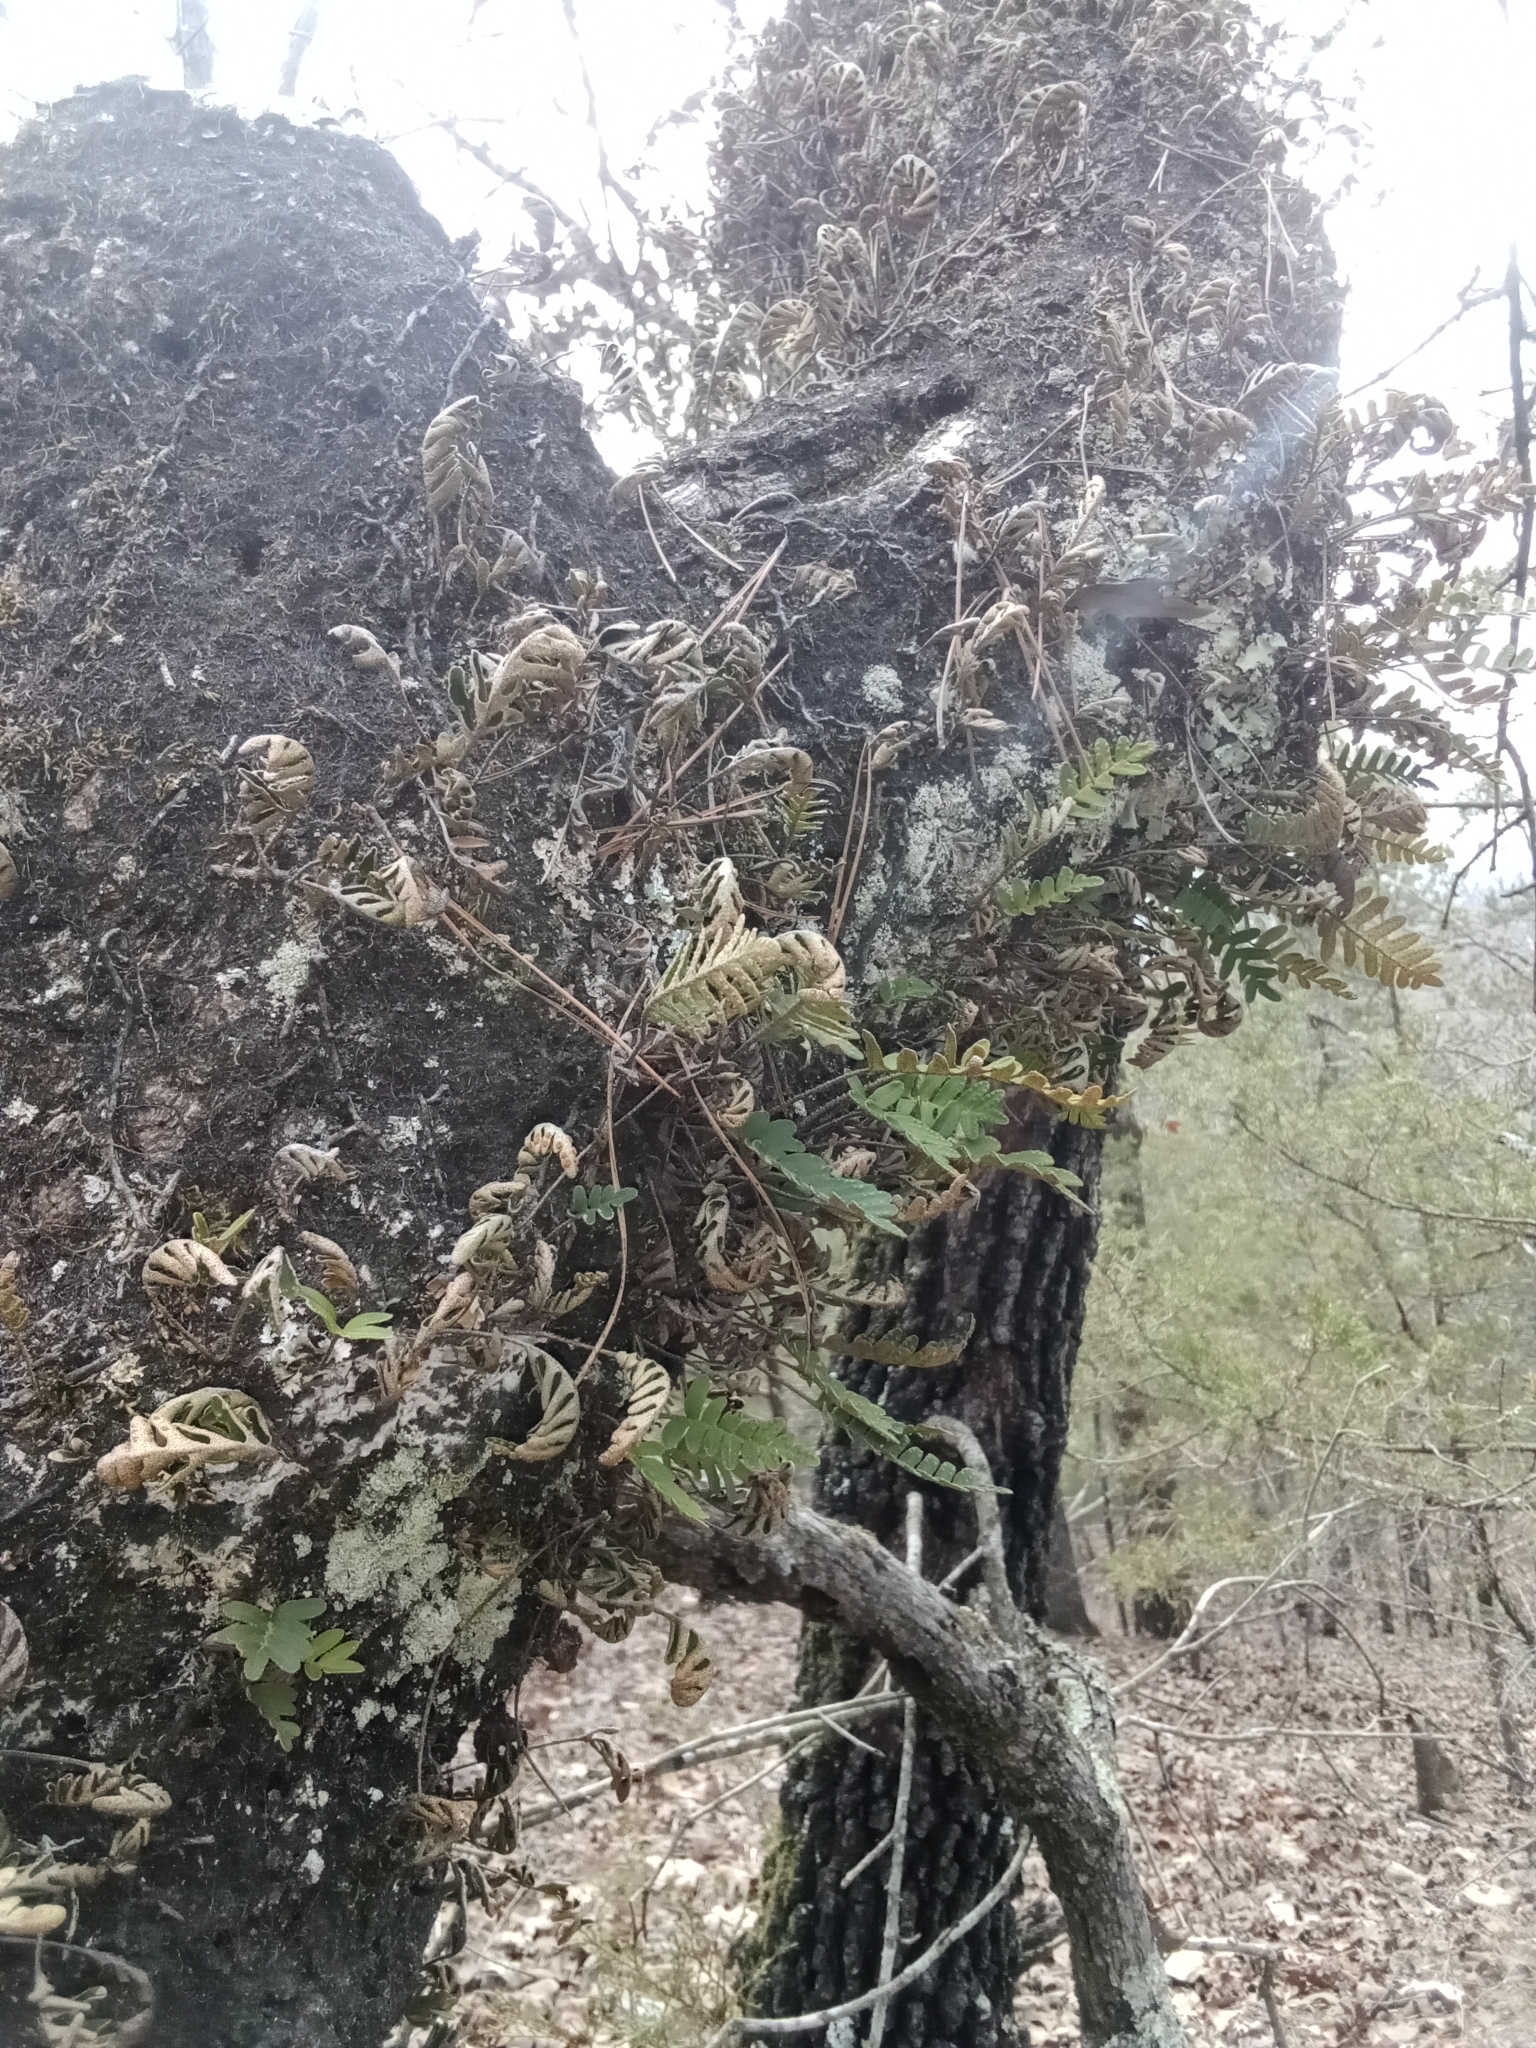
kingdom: Plantae
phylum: Tracheophyta
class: Polypodiopsida
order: Polypodiales
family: Polypodiaceae
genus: Pleopeltis
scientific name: Pleopeltis michauxiana
